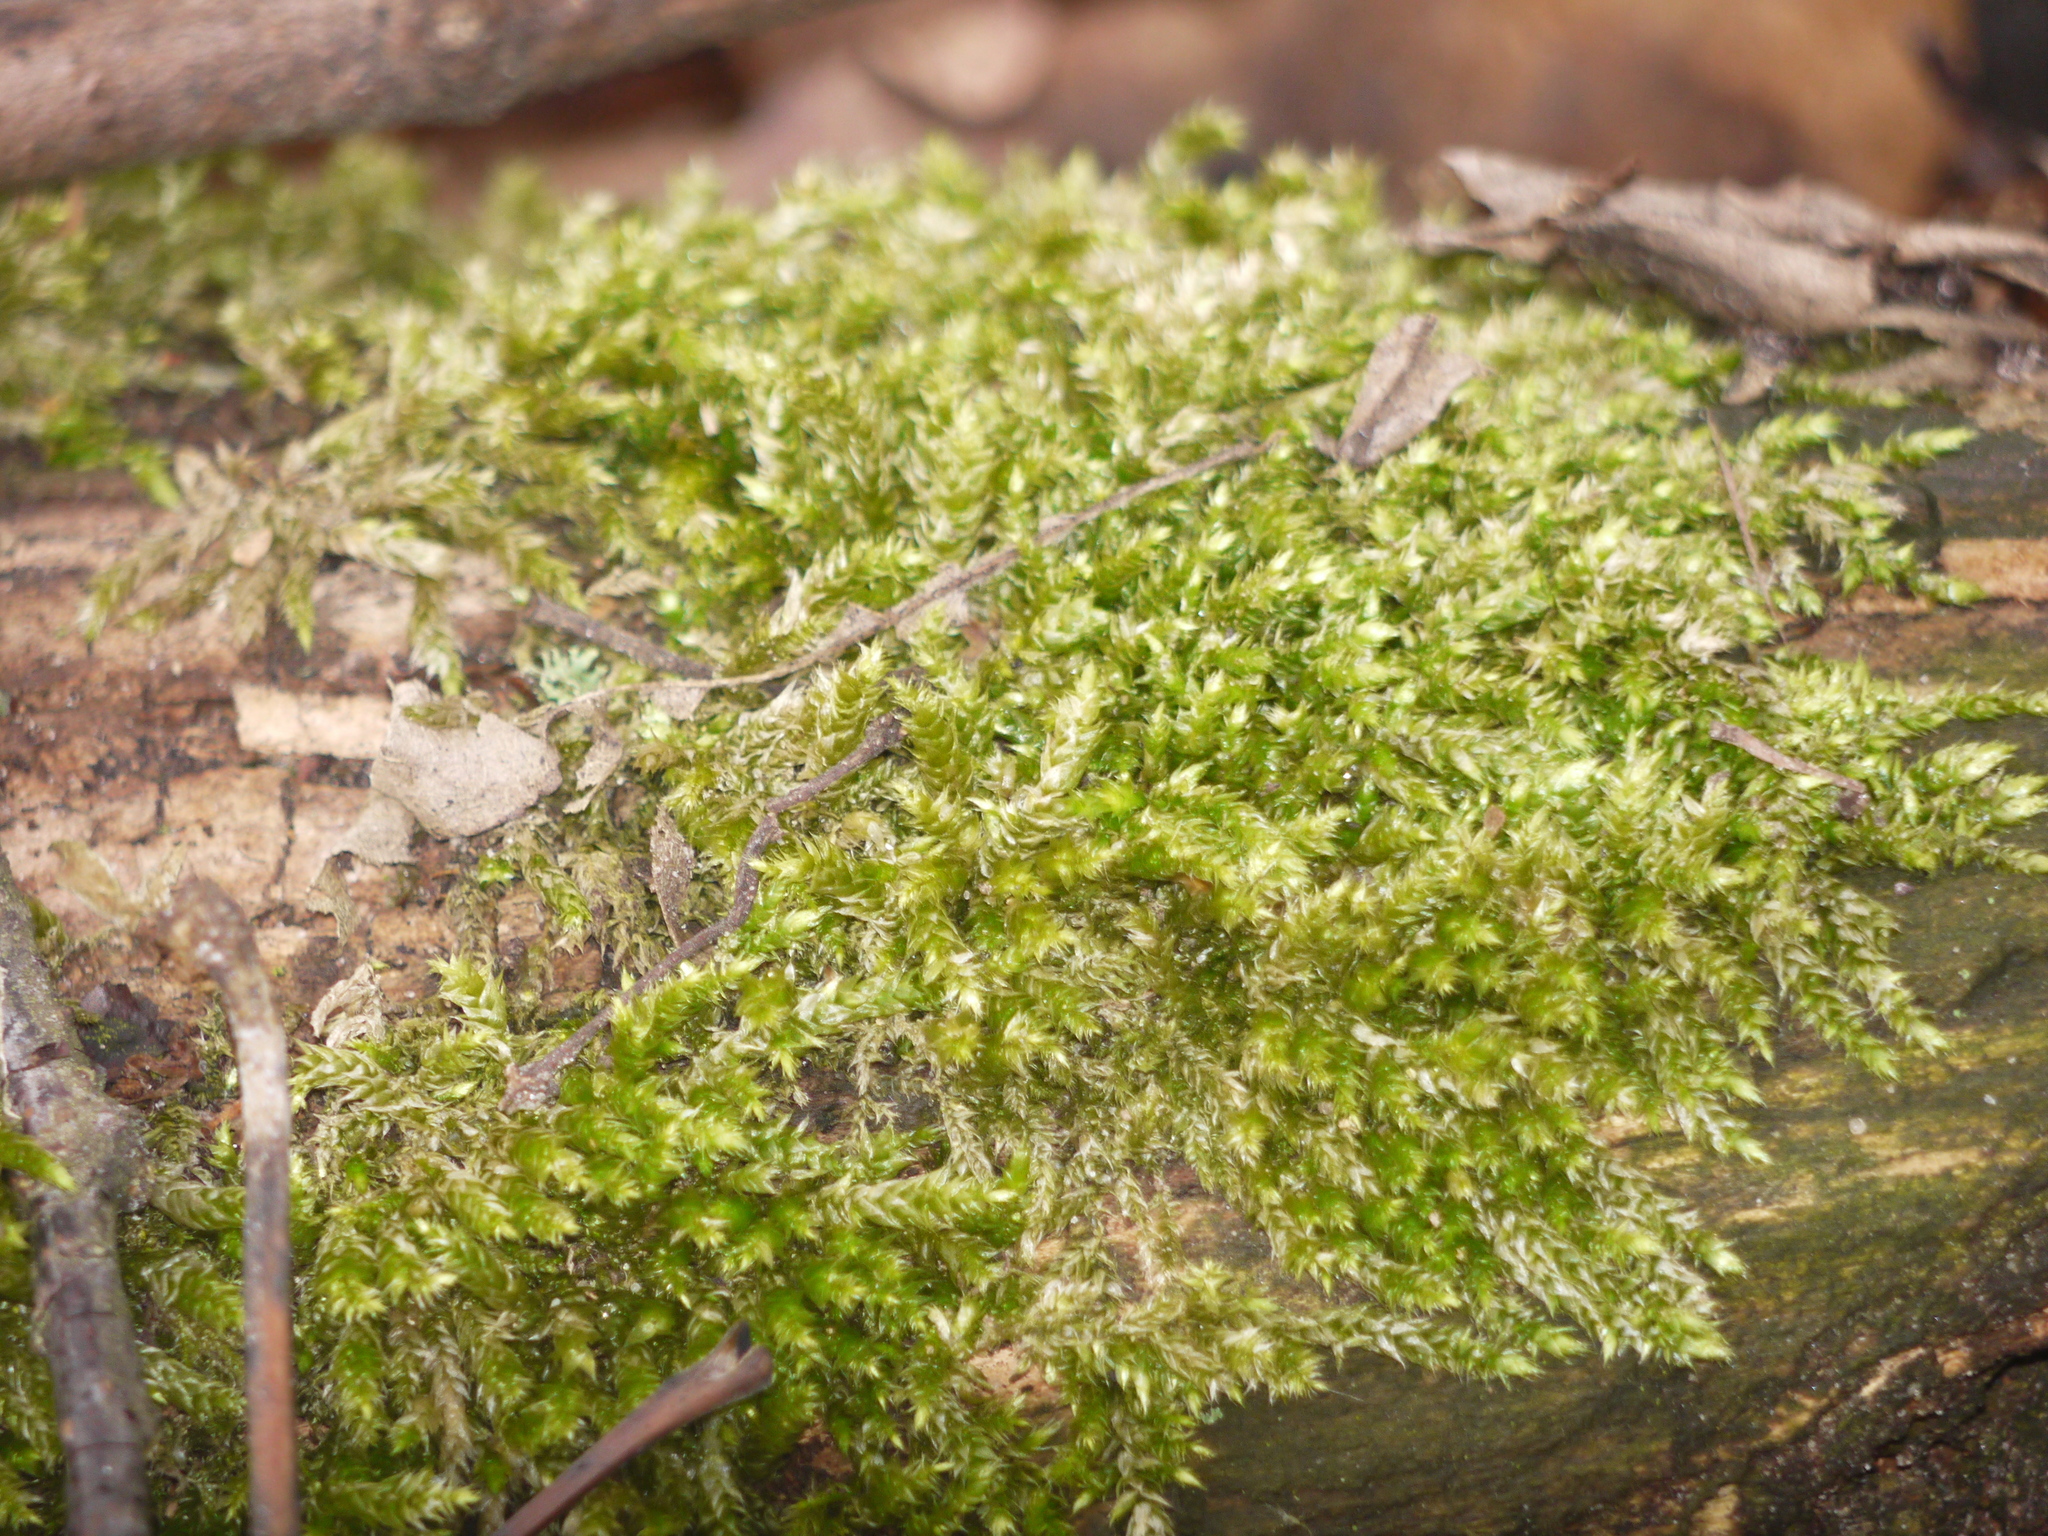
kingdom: Plantae
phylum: Bryophyta
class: Bryopsida
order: Hypnales
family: Hypnaceae
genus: Hypnum
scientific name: Hypnum cupressiforme
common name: Cypress-leaved plait-moss
